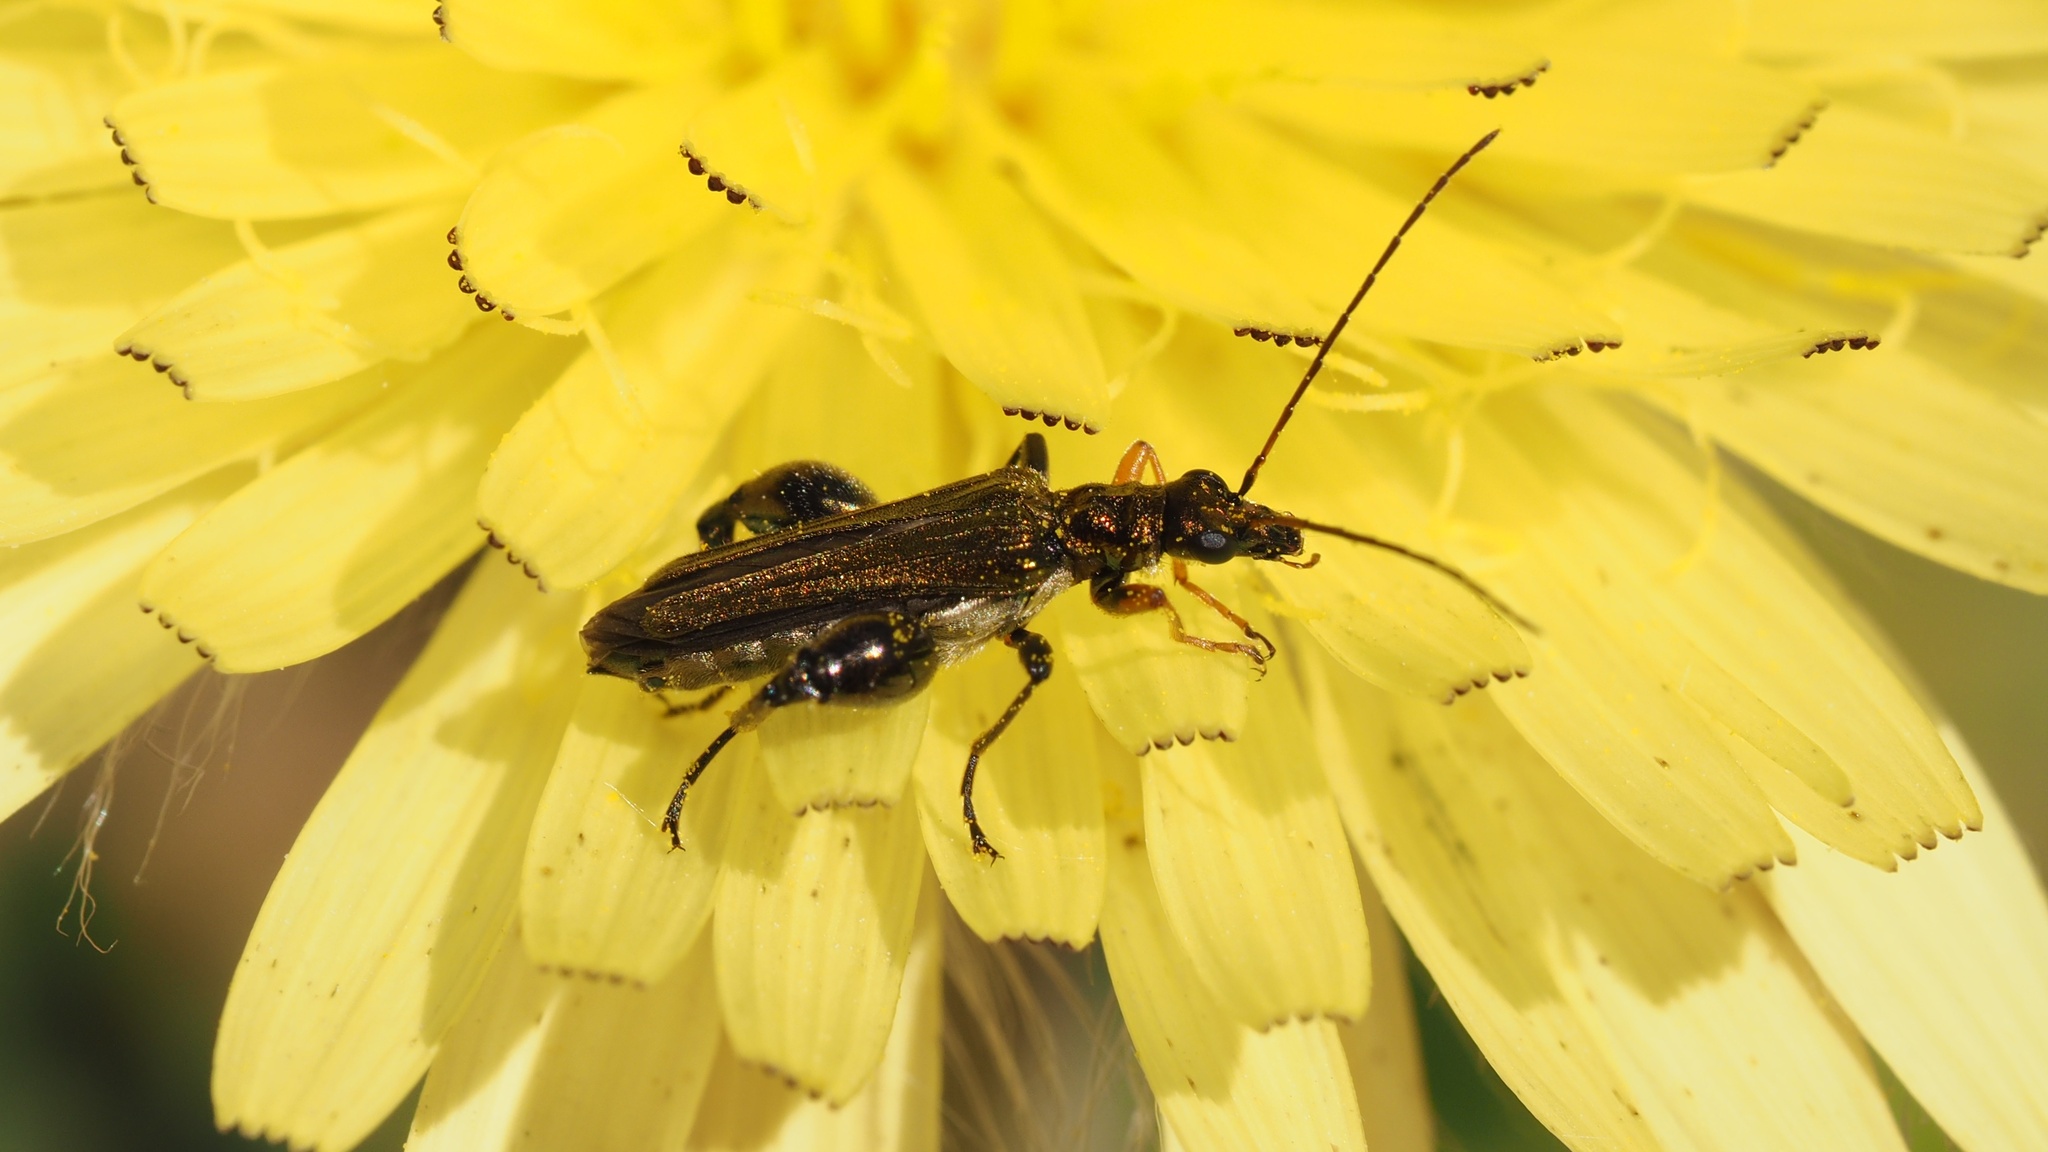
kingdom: Animalia
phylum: Arthropoda
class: Insecta
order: Coleoptera
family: Oedemeridae
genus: Oedemera
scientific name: Oedemera flavipes
